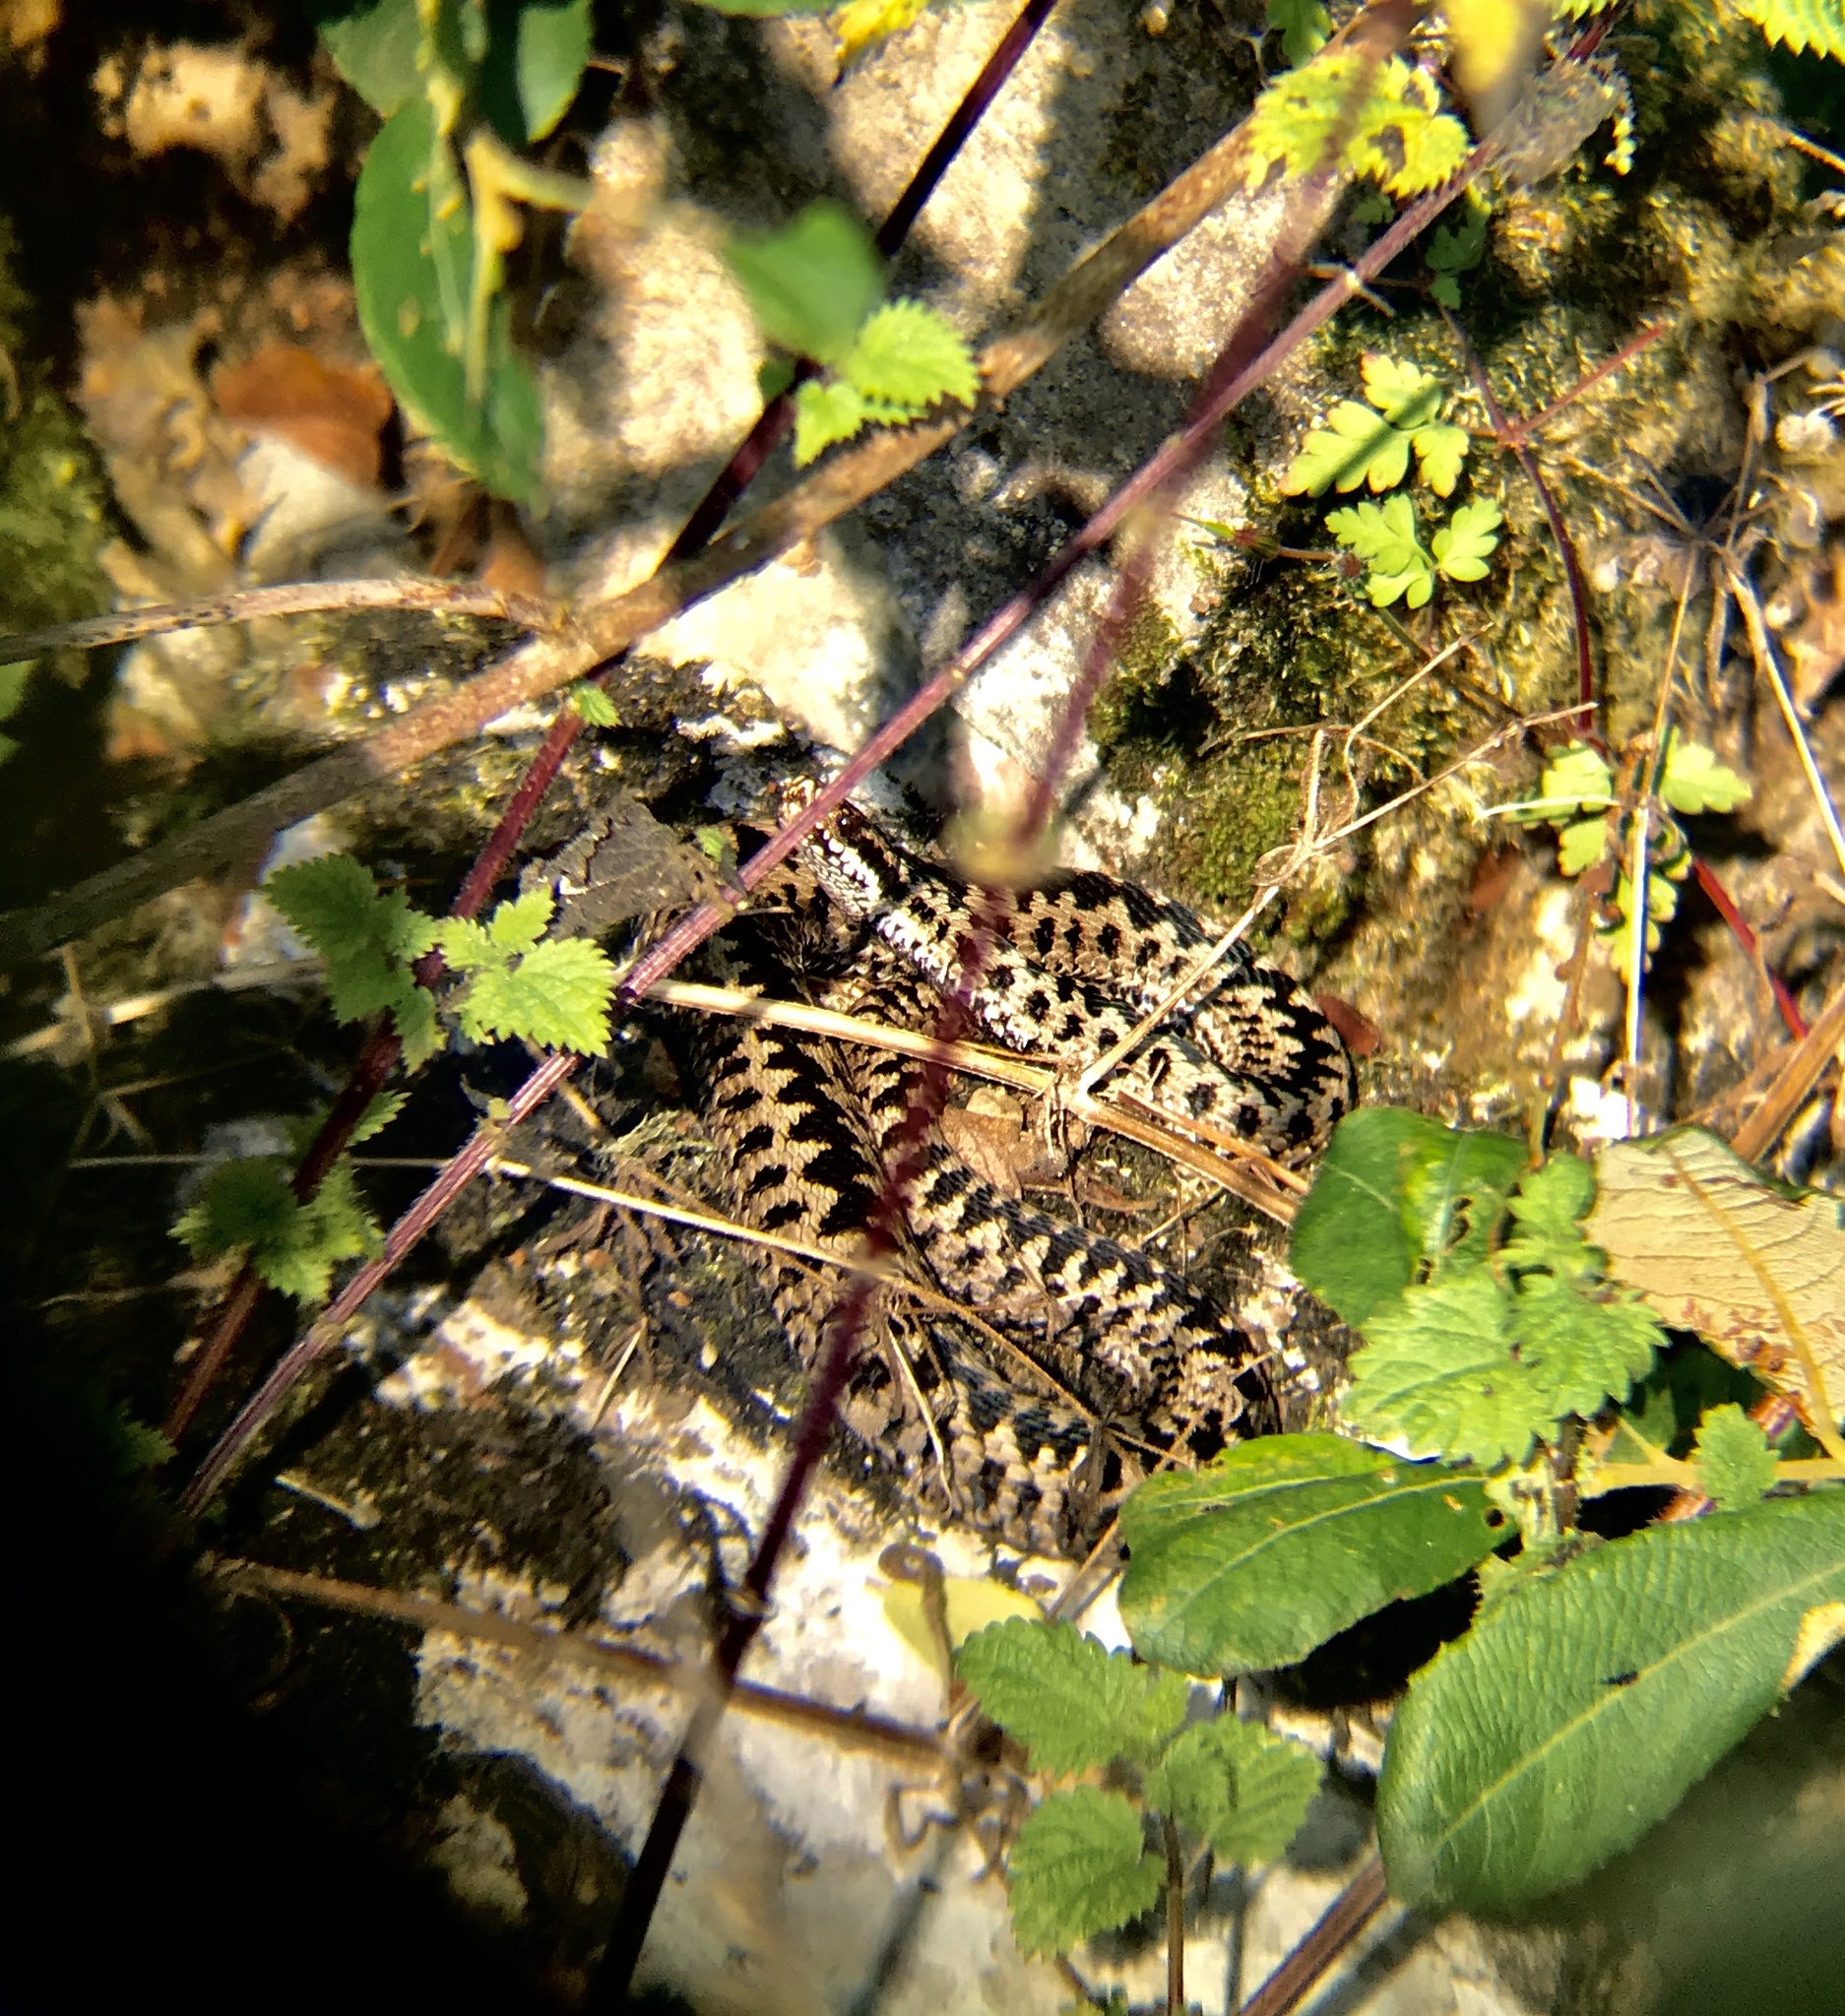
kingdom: Animalia
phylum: Chordata
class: Squamata
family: Viperidae
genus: Vipera
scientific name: Vipera berus
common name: Adder
